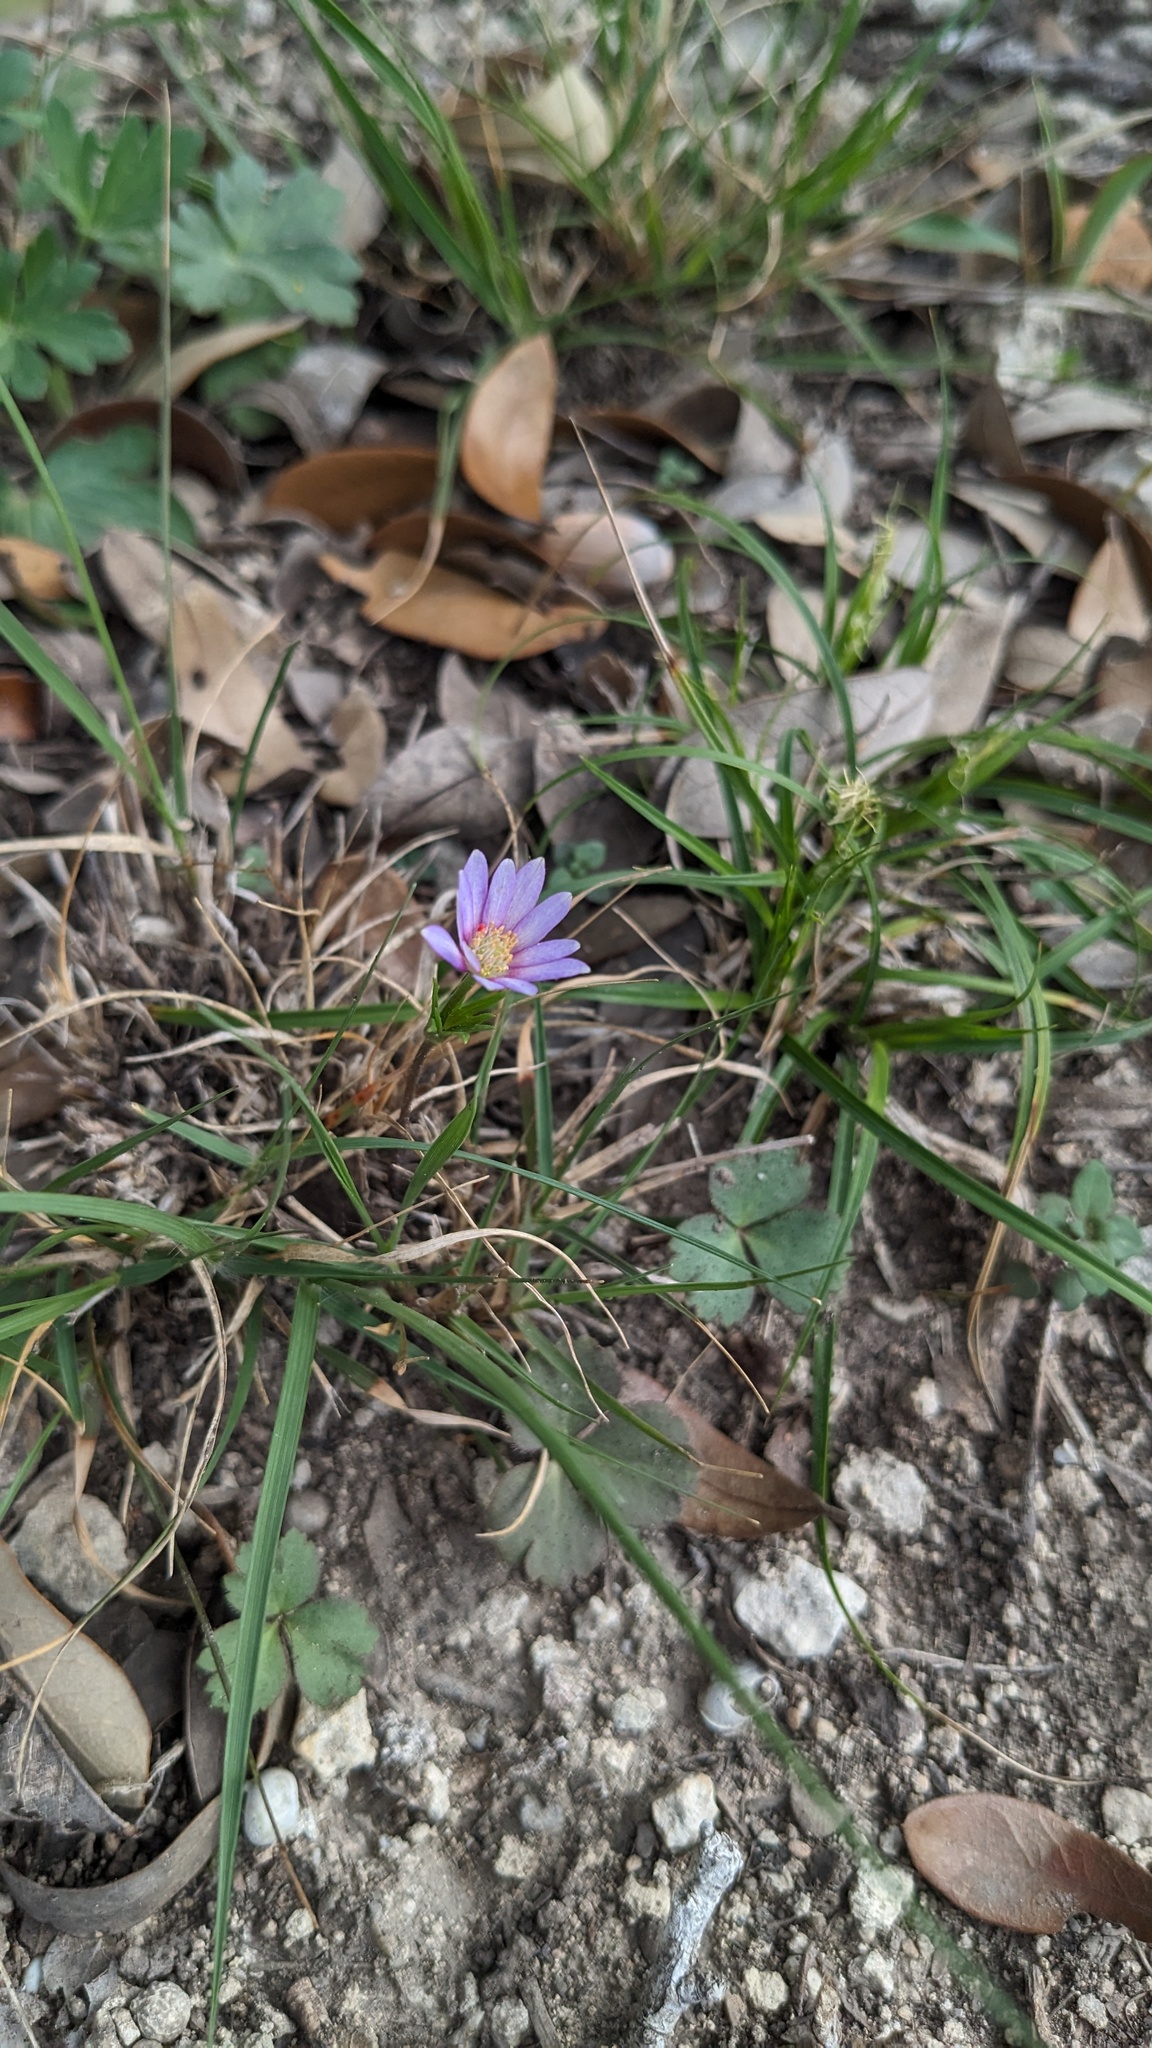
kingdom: Plantae
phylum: Tracheophyta
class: Magnoliopsida
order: Ranunculales
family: Ranunculaceae
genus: Anemone
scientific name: Anemone berlandieri
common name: Ten-petal anemone
